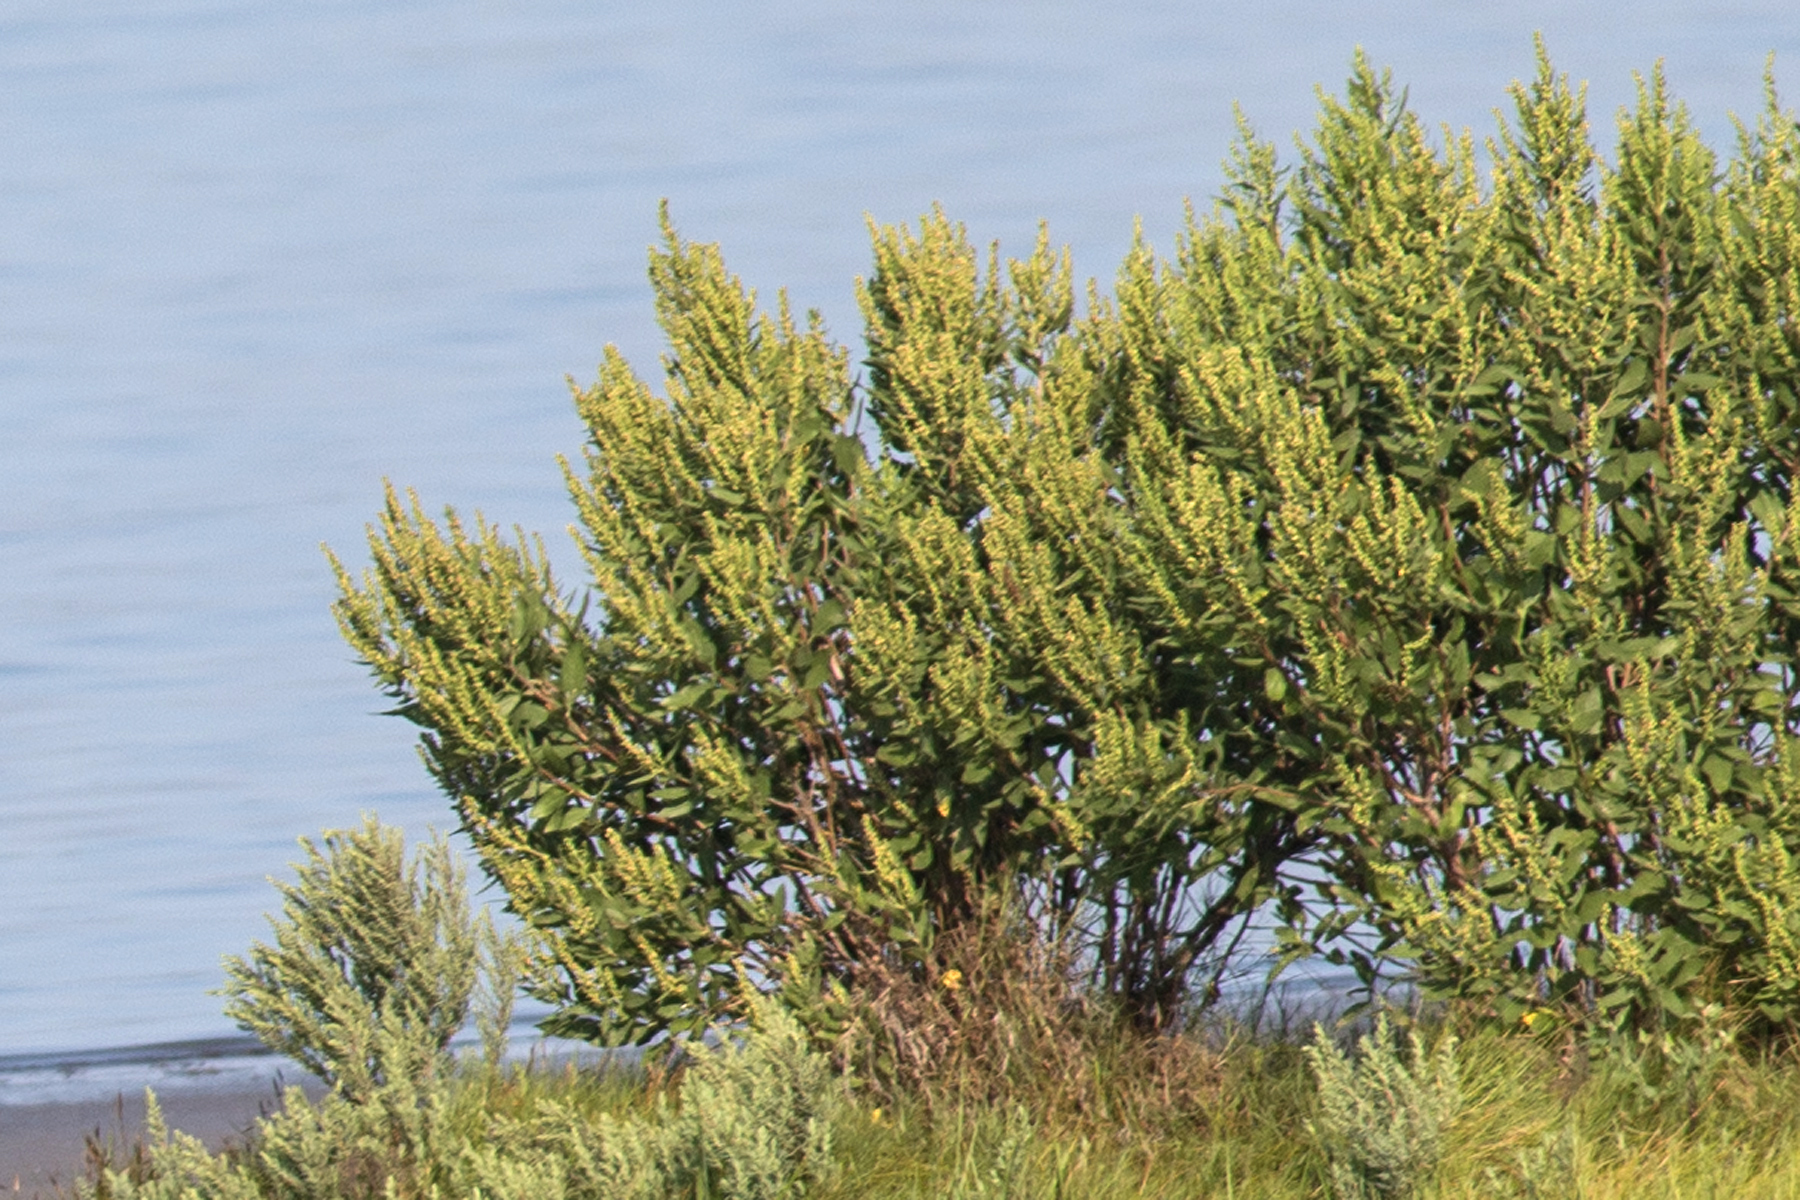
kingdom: Plantae
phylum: Tracheophyta
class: Magnoliopsida
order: Asterales
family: Asteraceae
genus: Iva
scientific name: Iva frutescens
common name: Big-leaved marsh-elder
